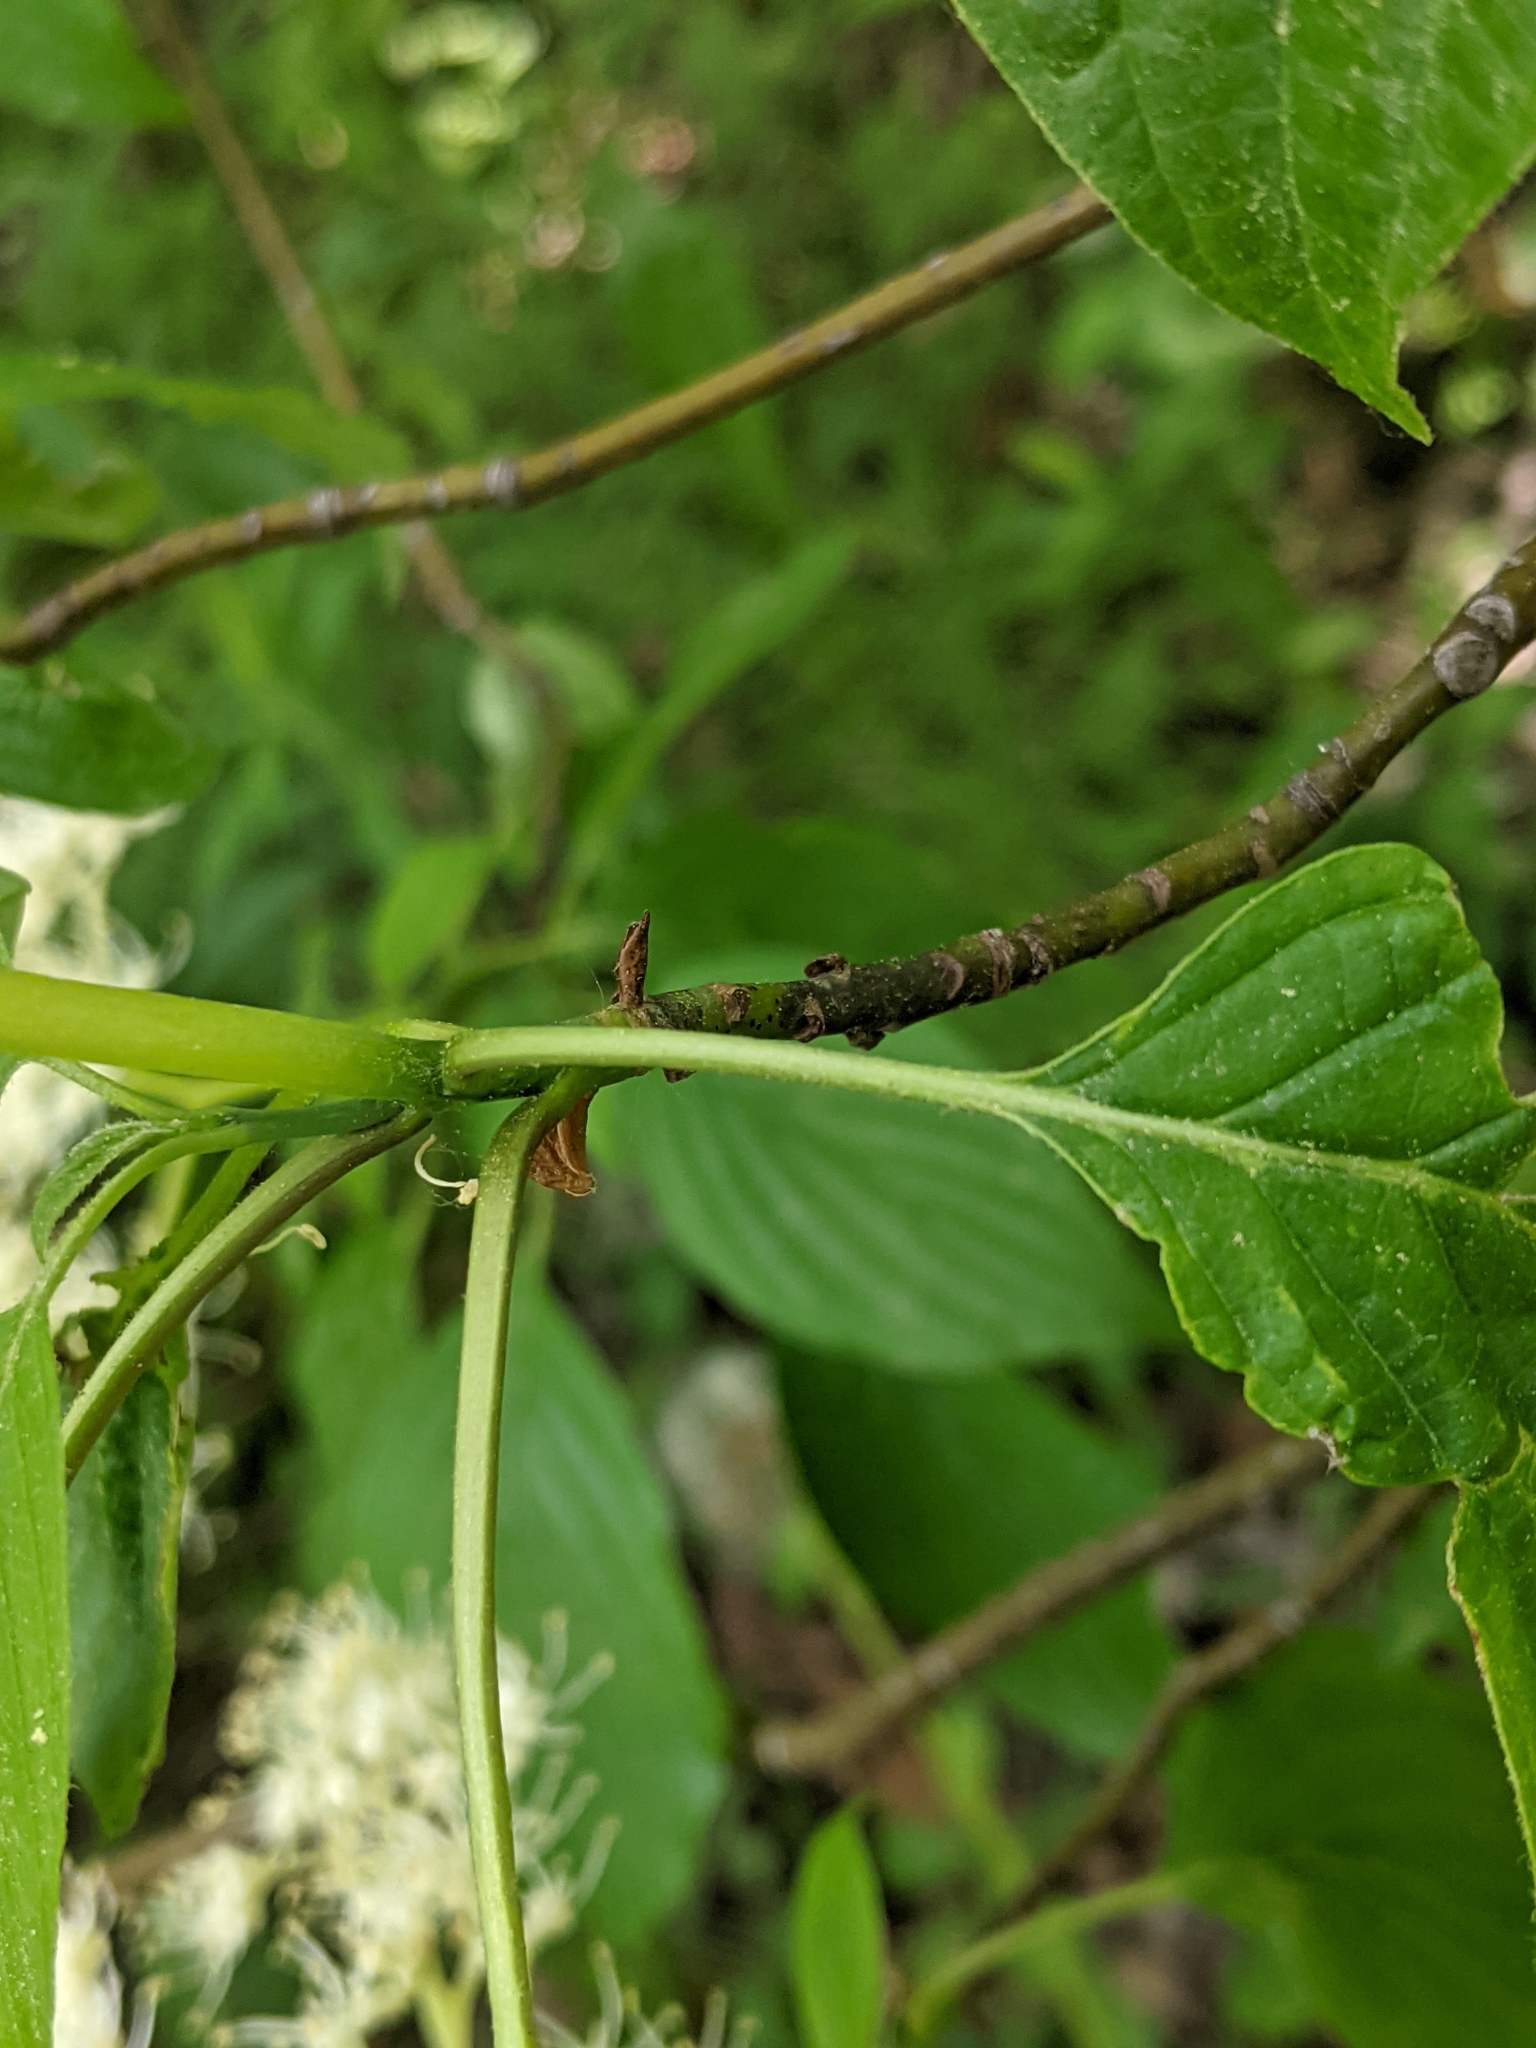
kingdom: Plantae
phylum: Tracheophyta
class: Magnoliopsida
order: Cornales
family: Cornaceae
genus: Cornus
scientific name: Cornus alternifolia
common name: Pagoda dogwood
